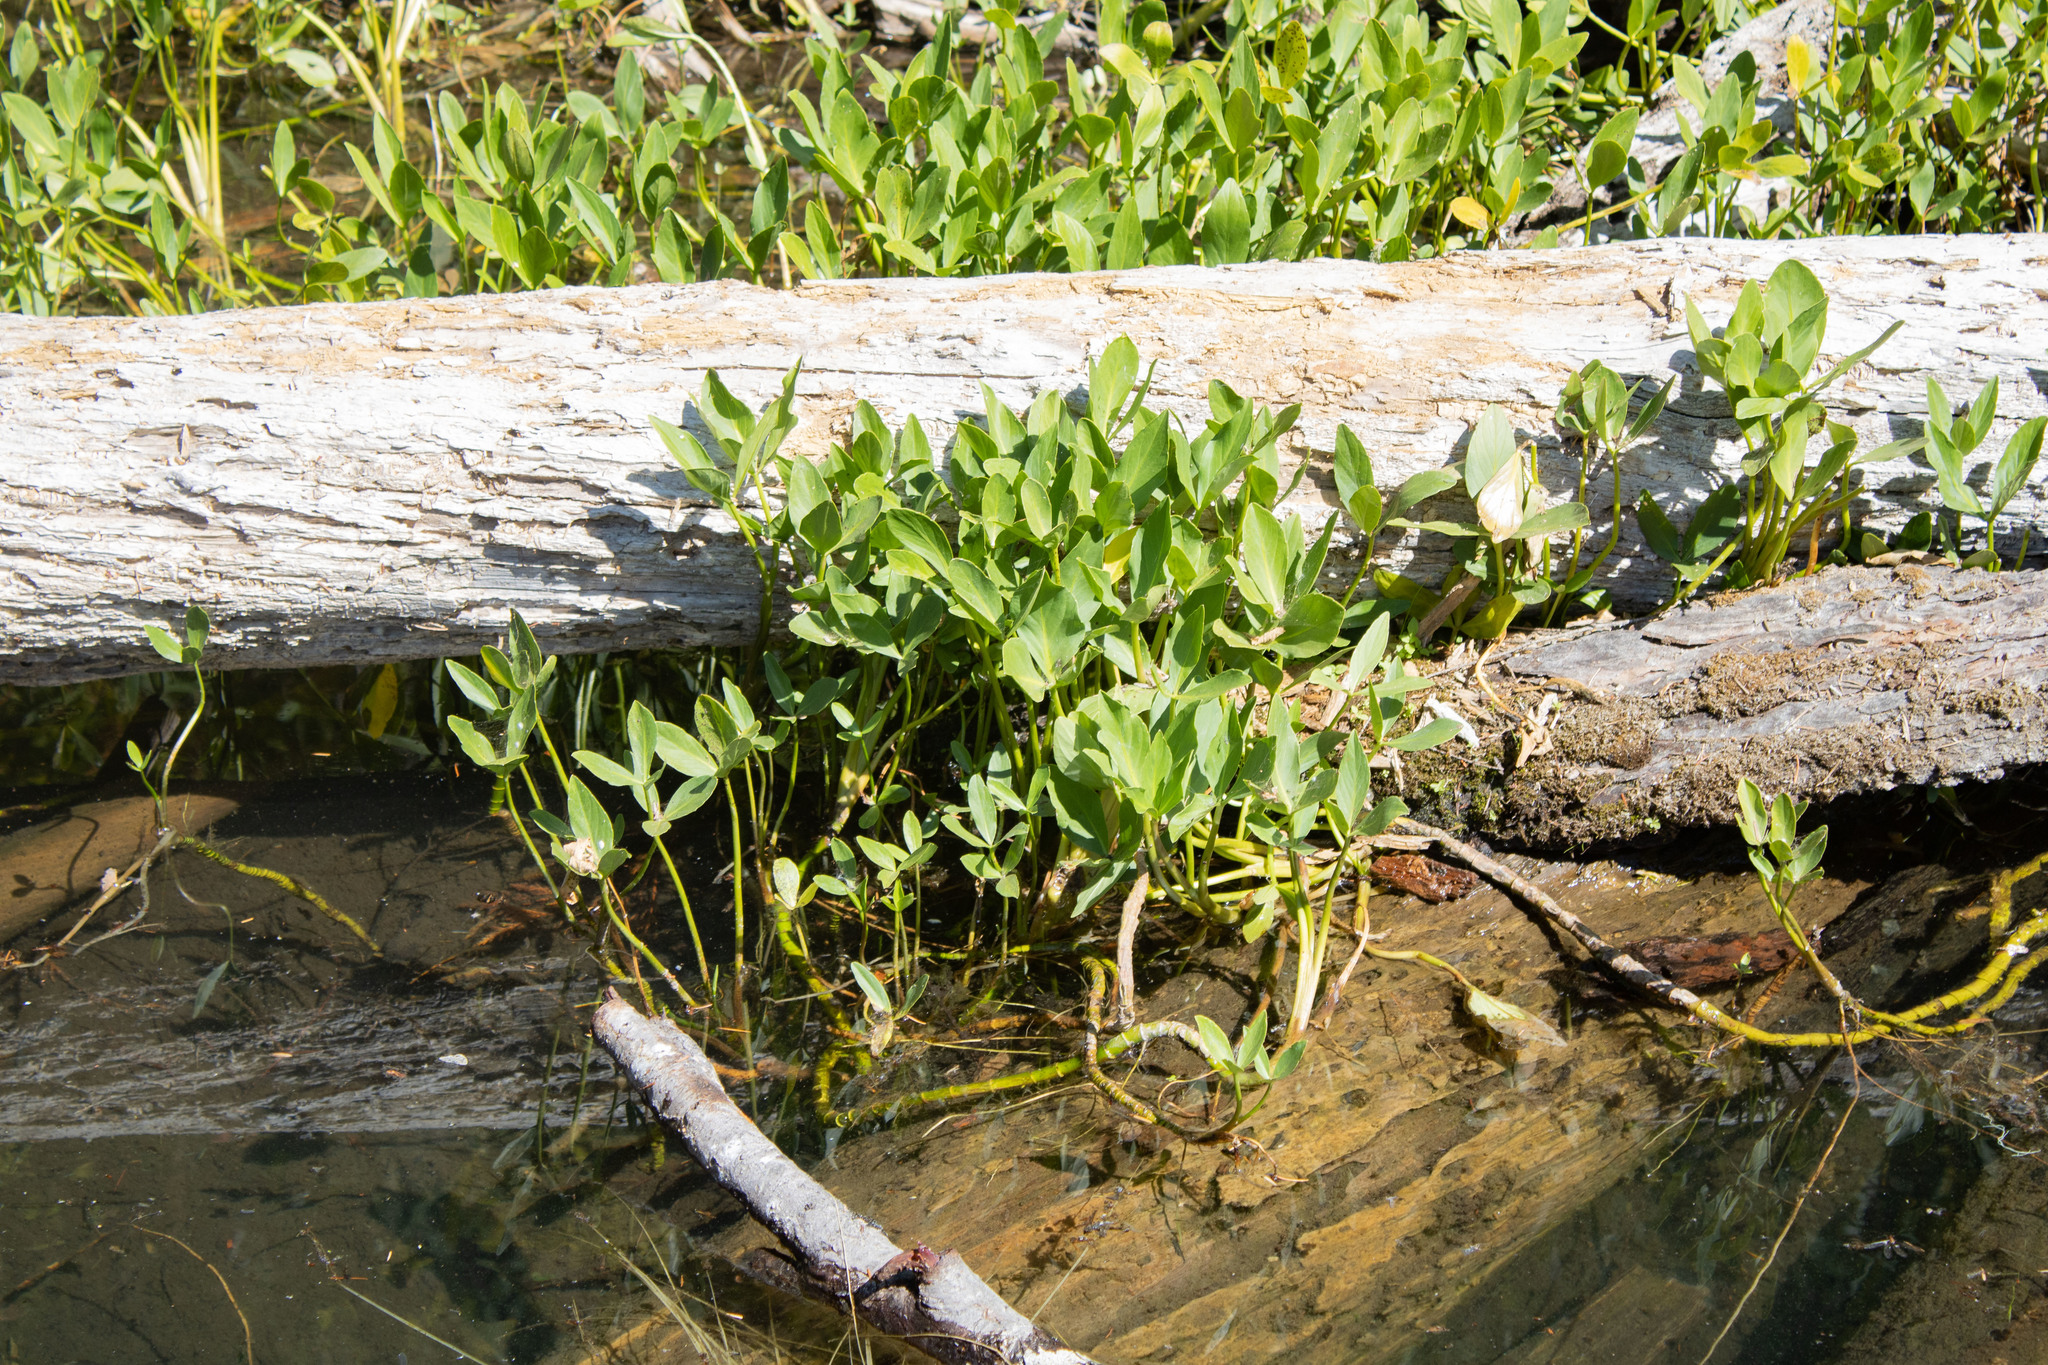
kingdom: Plantae
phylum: Tracheophyta
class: Magnoliopsida
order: Asterales
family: Menyanthaceae
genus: Menyanthes
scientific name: Menyanthes trifoliata
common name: Bogbean
